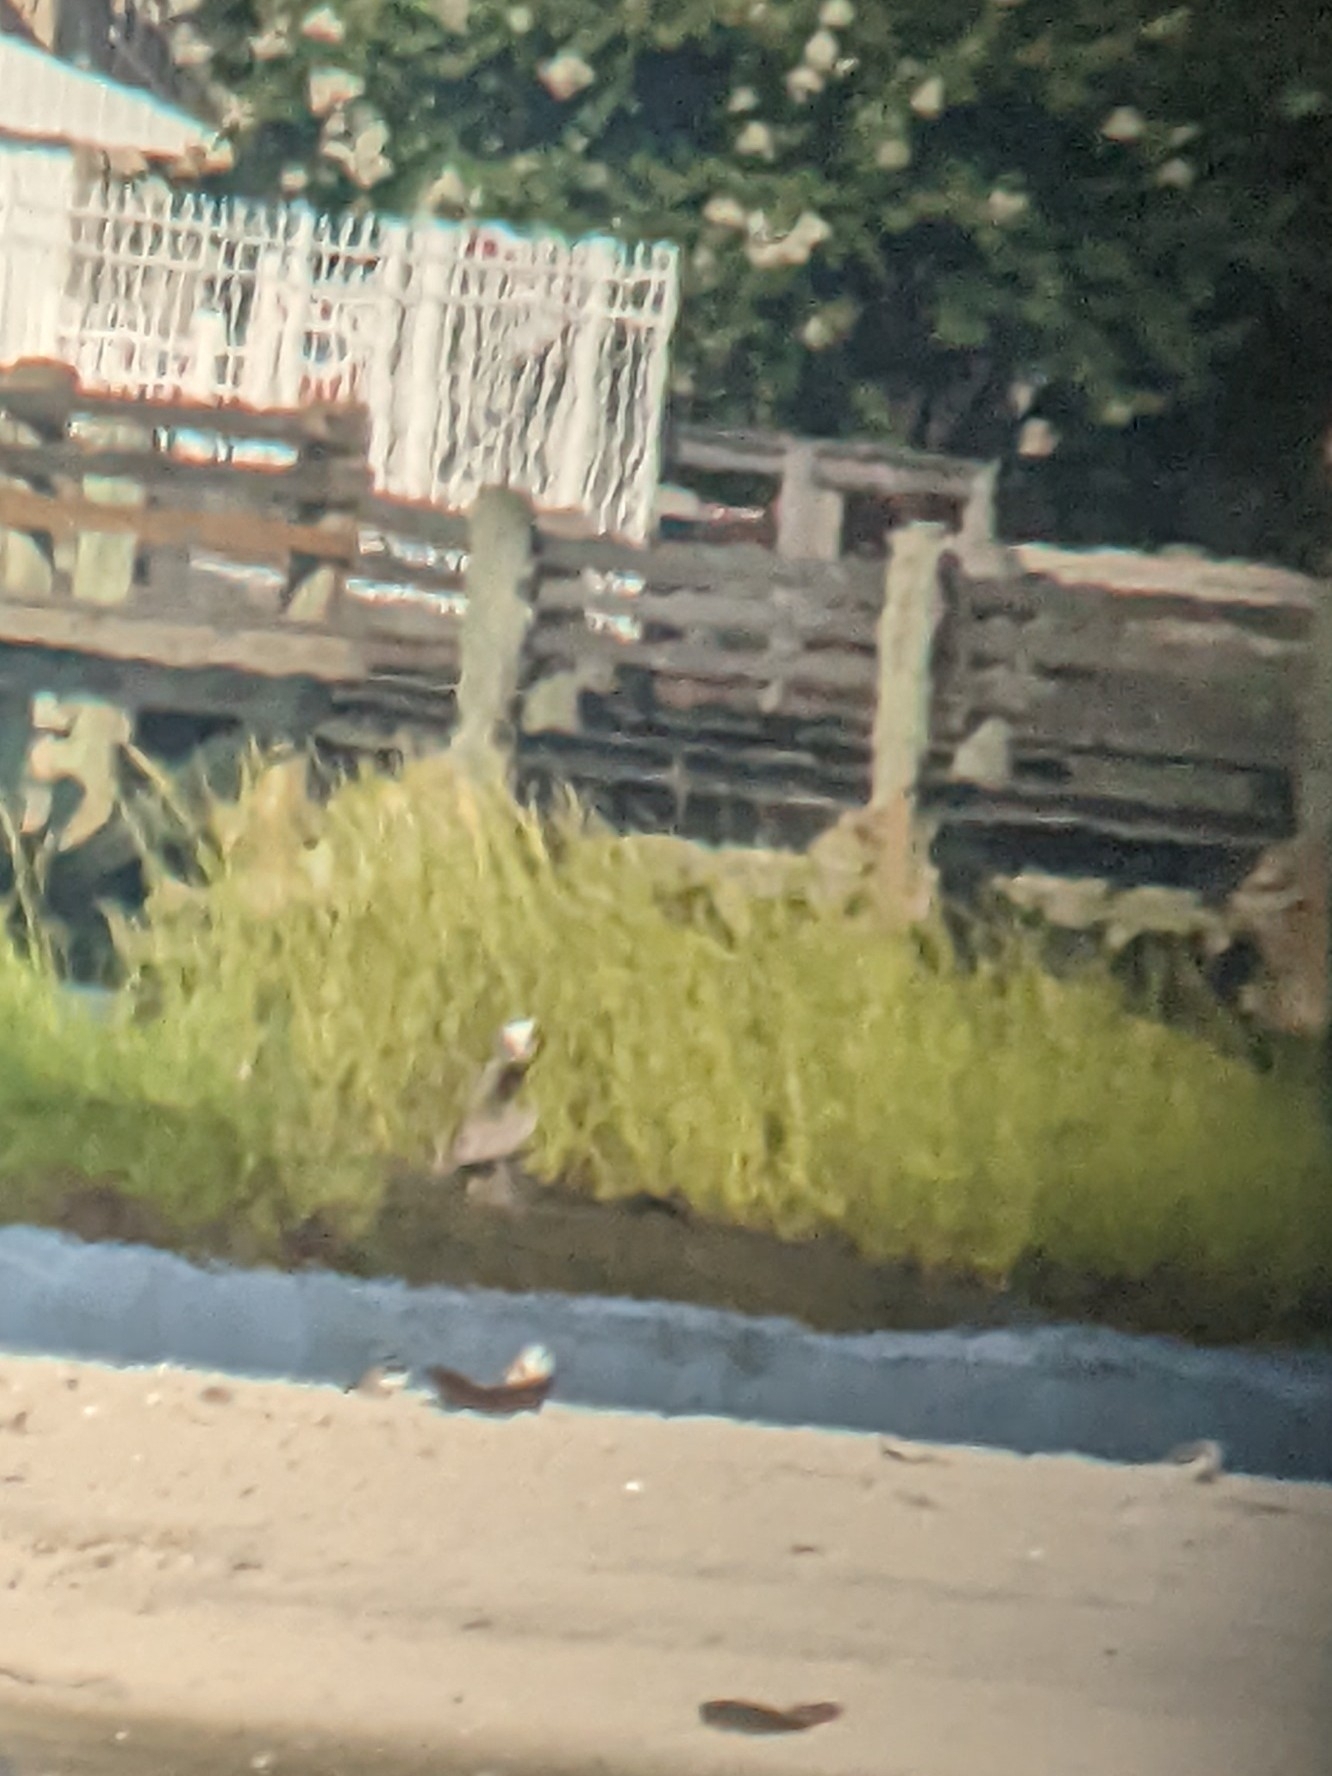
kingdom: Animalia
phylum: Chordata
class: Aves
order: Pelecaniformes
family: Pelecanidae
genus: Pelecanus
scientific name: Pelecanus occidentalis
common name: Brown pelican
